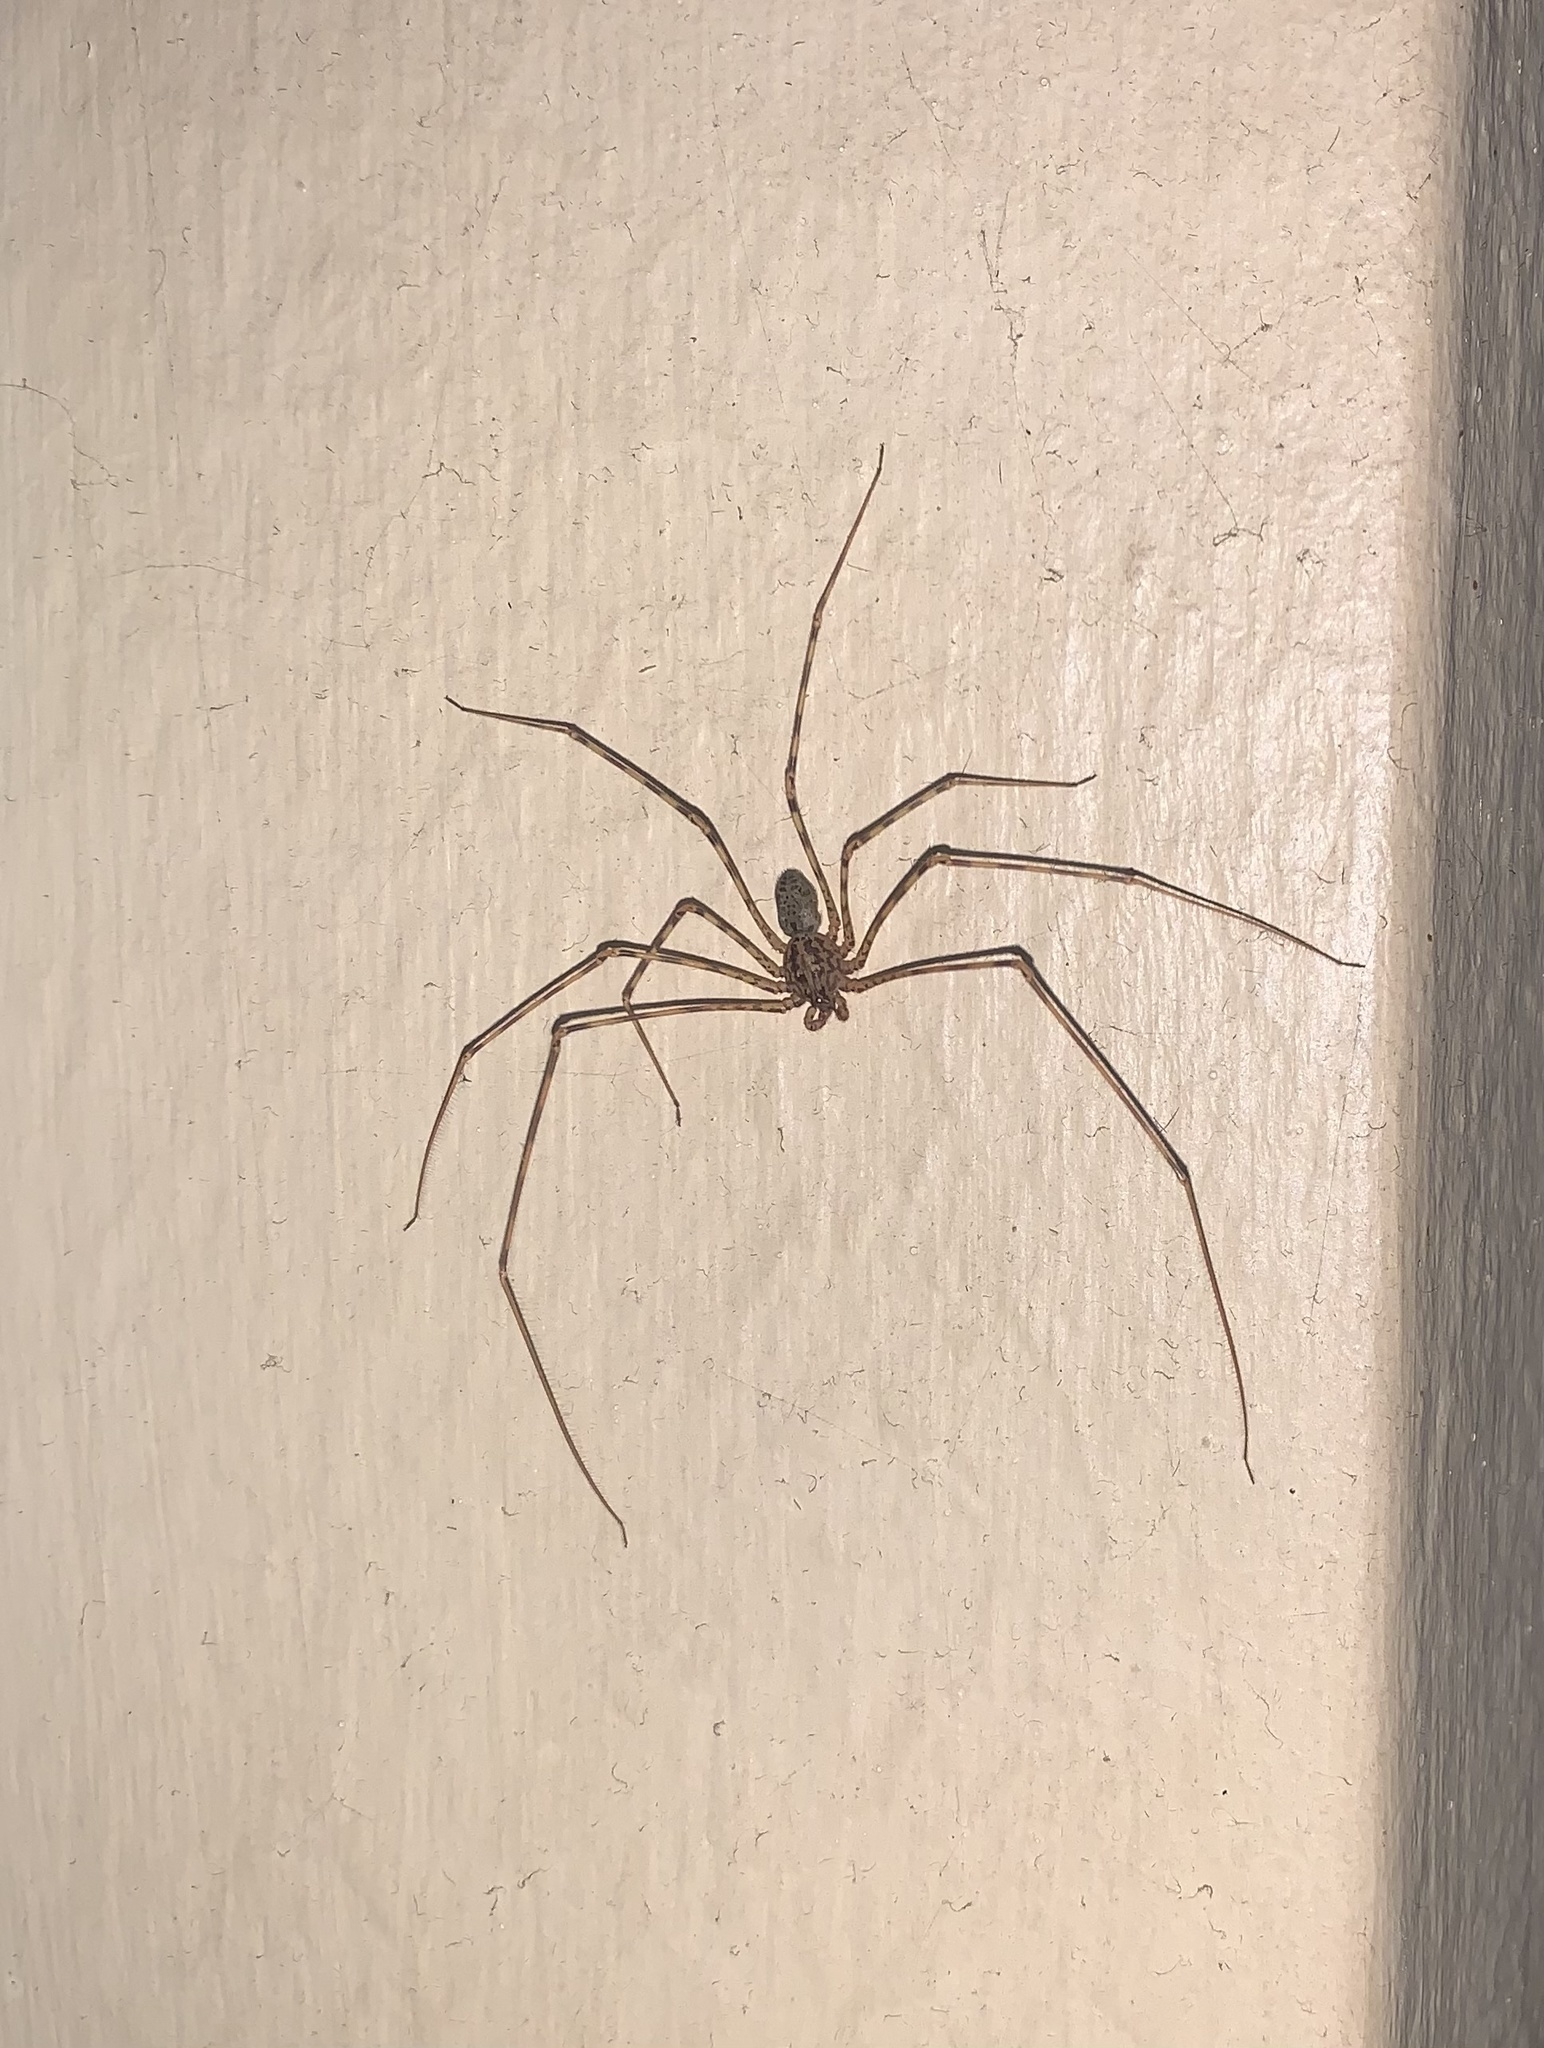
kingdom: Animalia
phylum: Arthropoda
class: Arachnida
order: Araneae
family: Scytodidae
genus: Scytodes
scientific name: Scytodes globula
